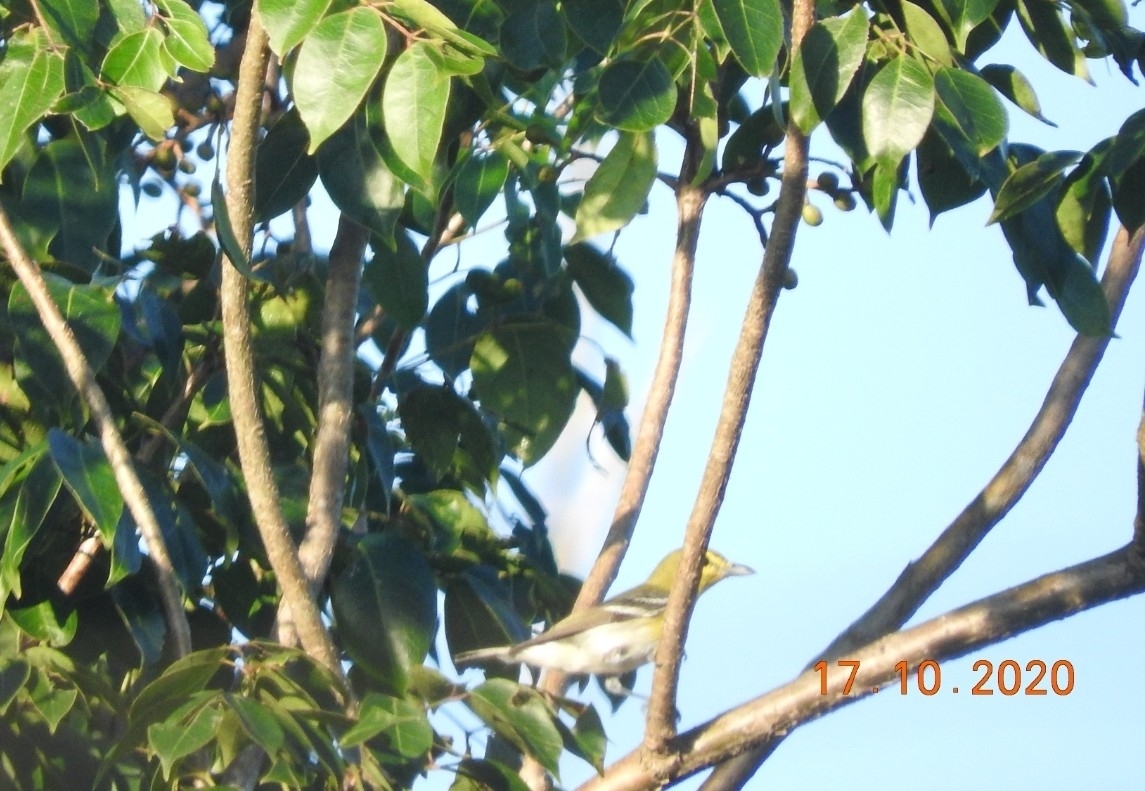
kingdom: Animalia
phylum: Chordata
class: Aves
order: Passeriformes
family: Vireonidae
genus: Vireo
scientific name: Vireo flavifrons
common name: Yellow-throated vireo
